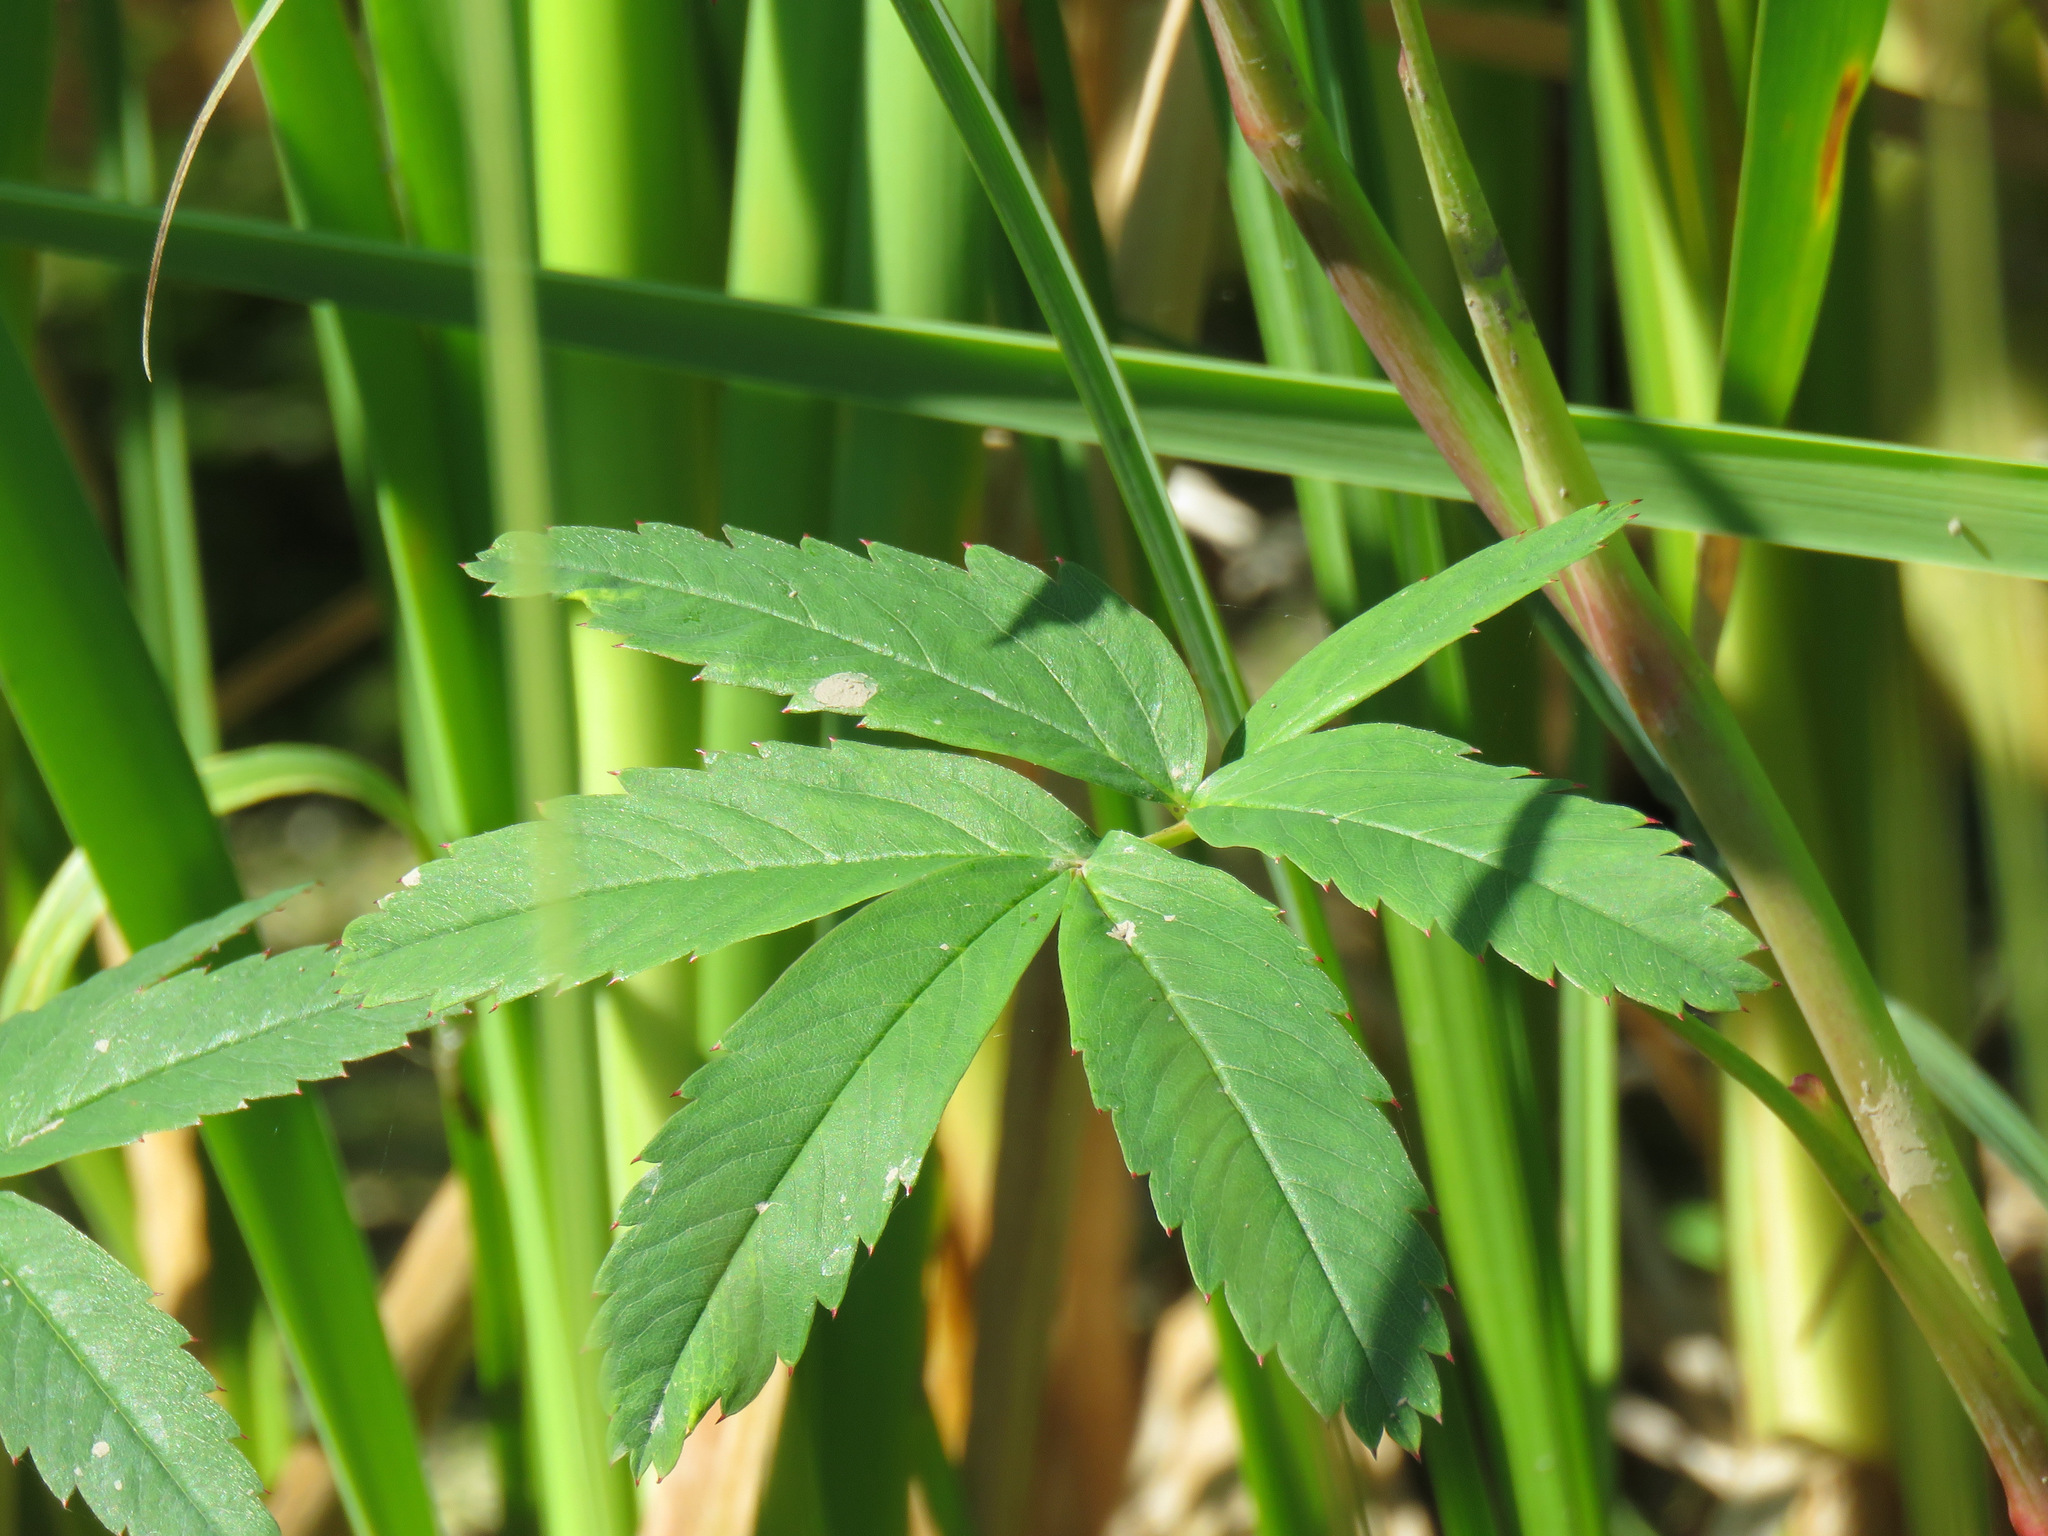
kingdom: Plantae
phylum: Tracheophyta
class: Magnoliopsida
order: Rosales
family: Rosaceae
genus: Comarum
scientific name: Comarum palustre
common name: Marsh cinquefoil
